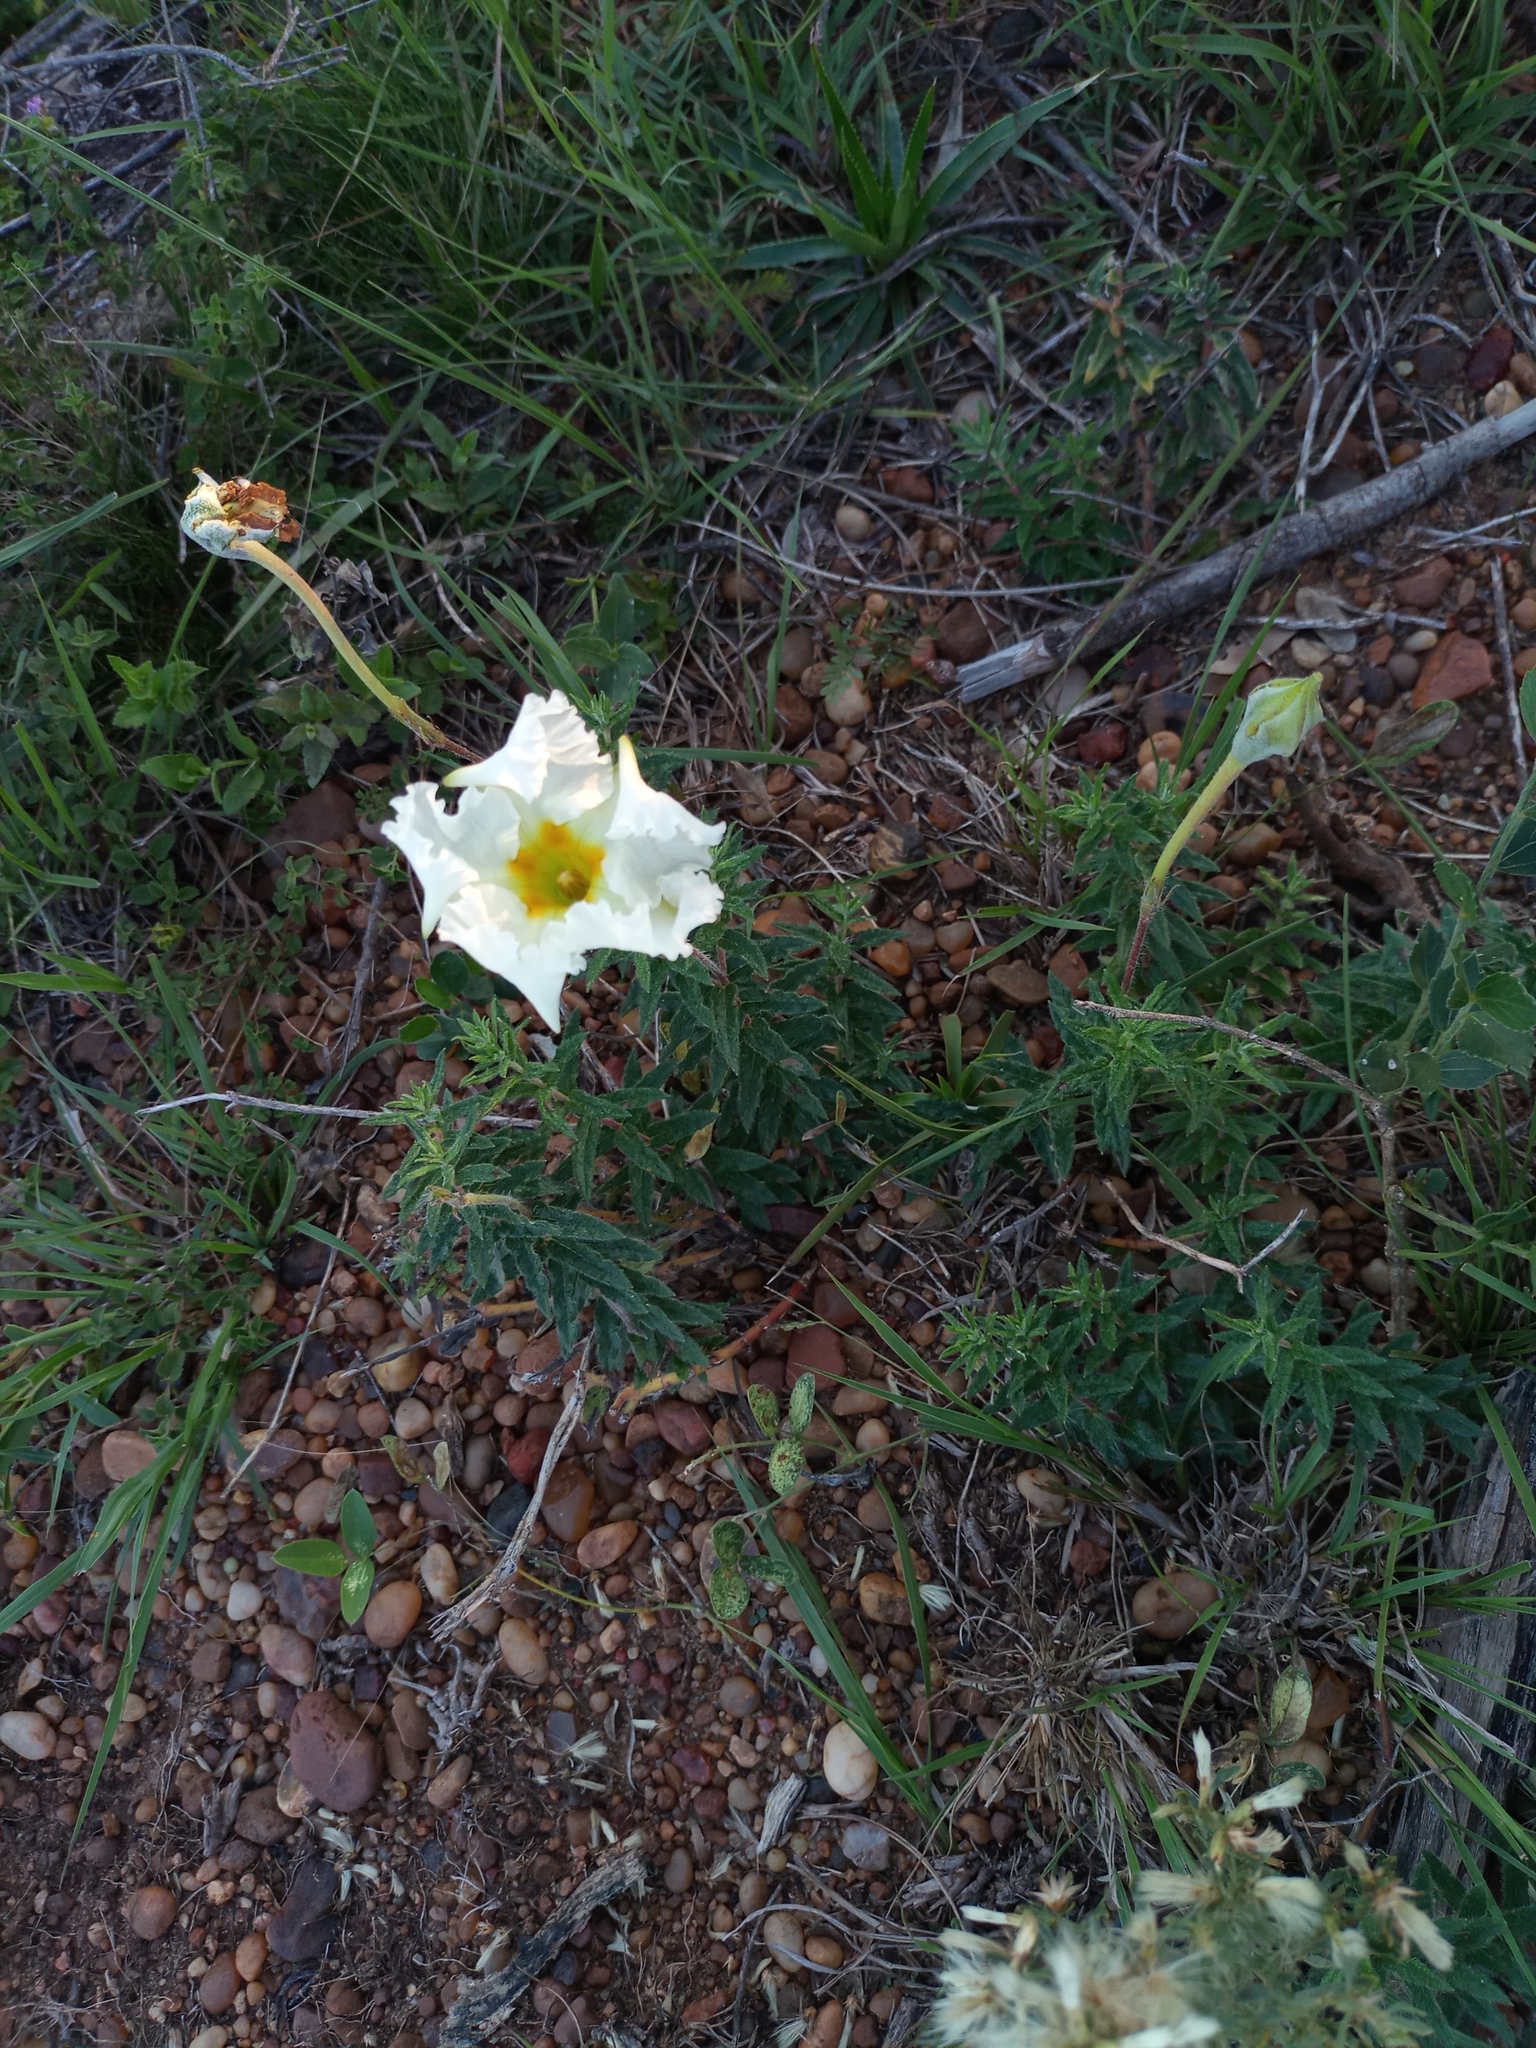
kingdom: Plantae
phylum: Tracheophyta
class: Magnoliopsida
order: Gentianales
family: Apocynaceae
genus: Mandevilla
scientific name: Mandevilla petraea
